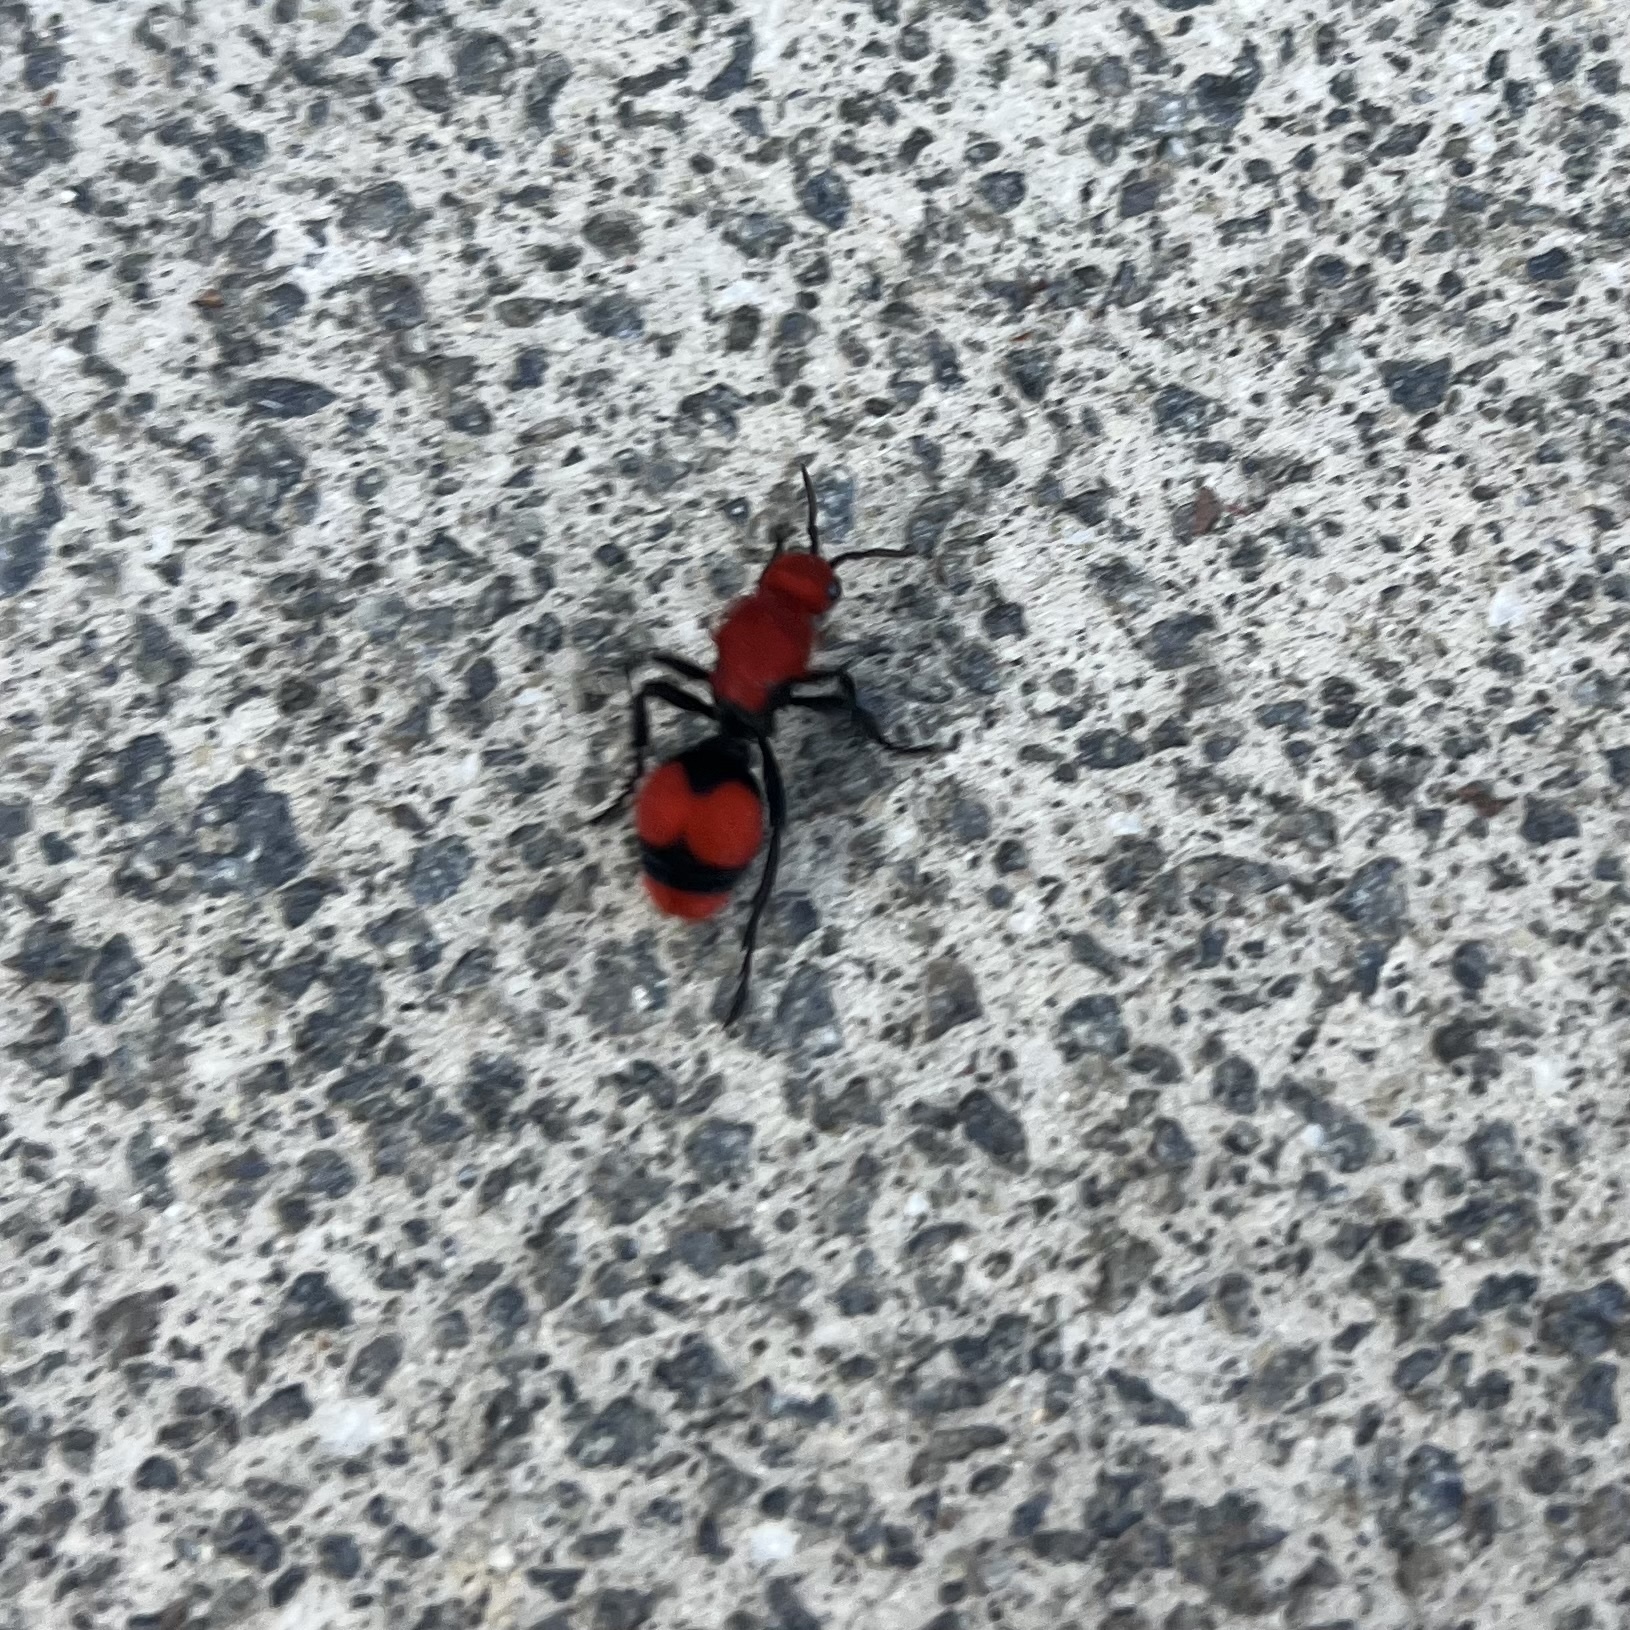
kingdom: Animalia
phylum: Arthropoda
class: Insecta
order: Hymenoptera
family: Mutillidae
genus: Dasymutilla
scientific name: Dasymutilla occidentalis
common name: Common eastern velvet ant
